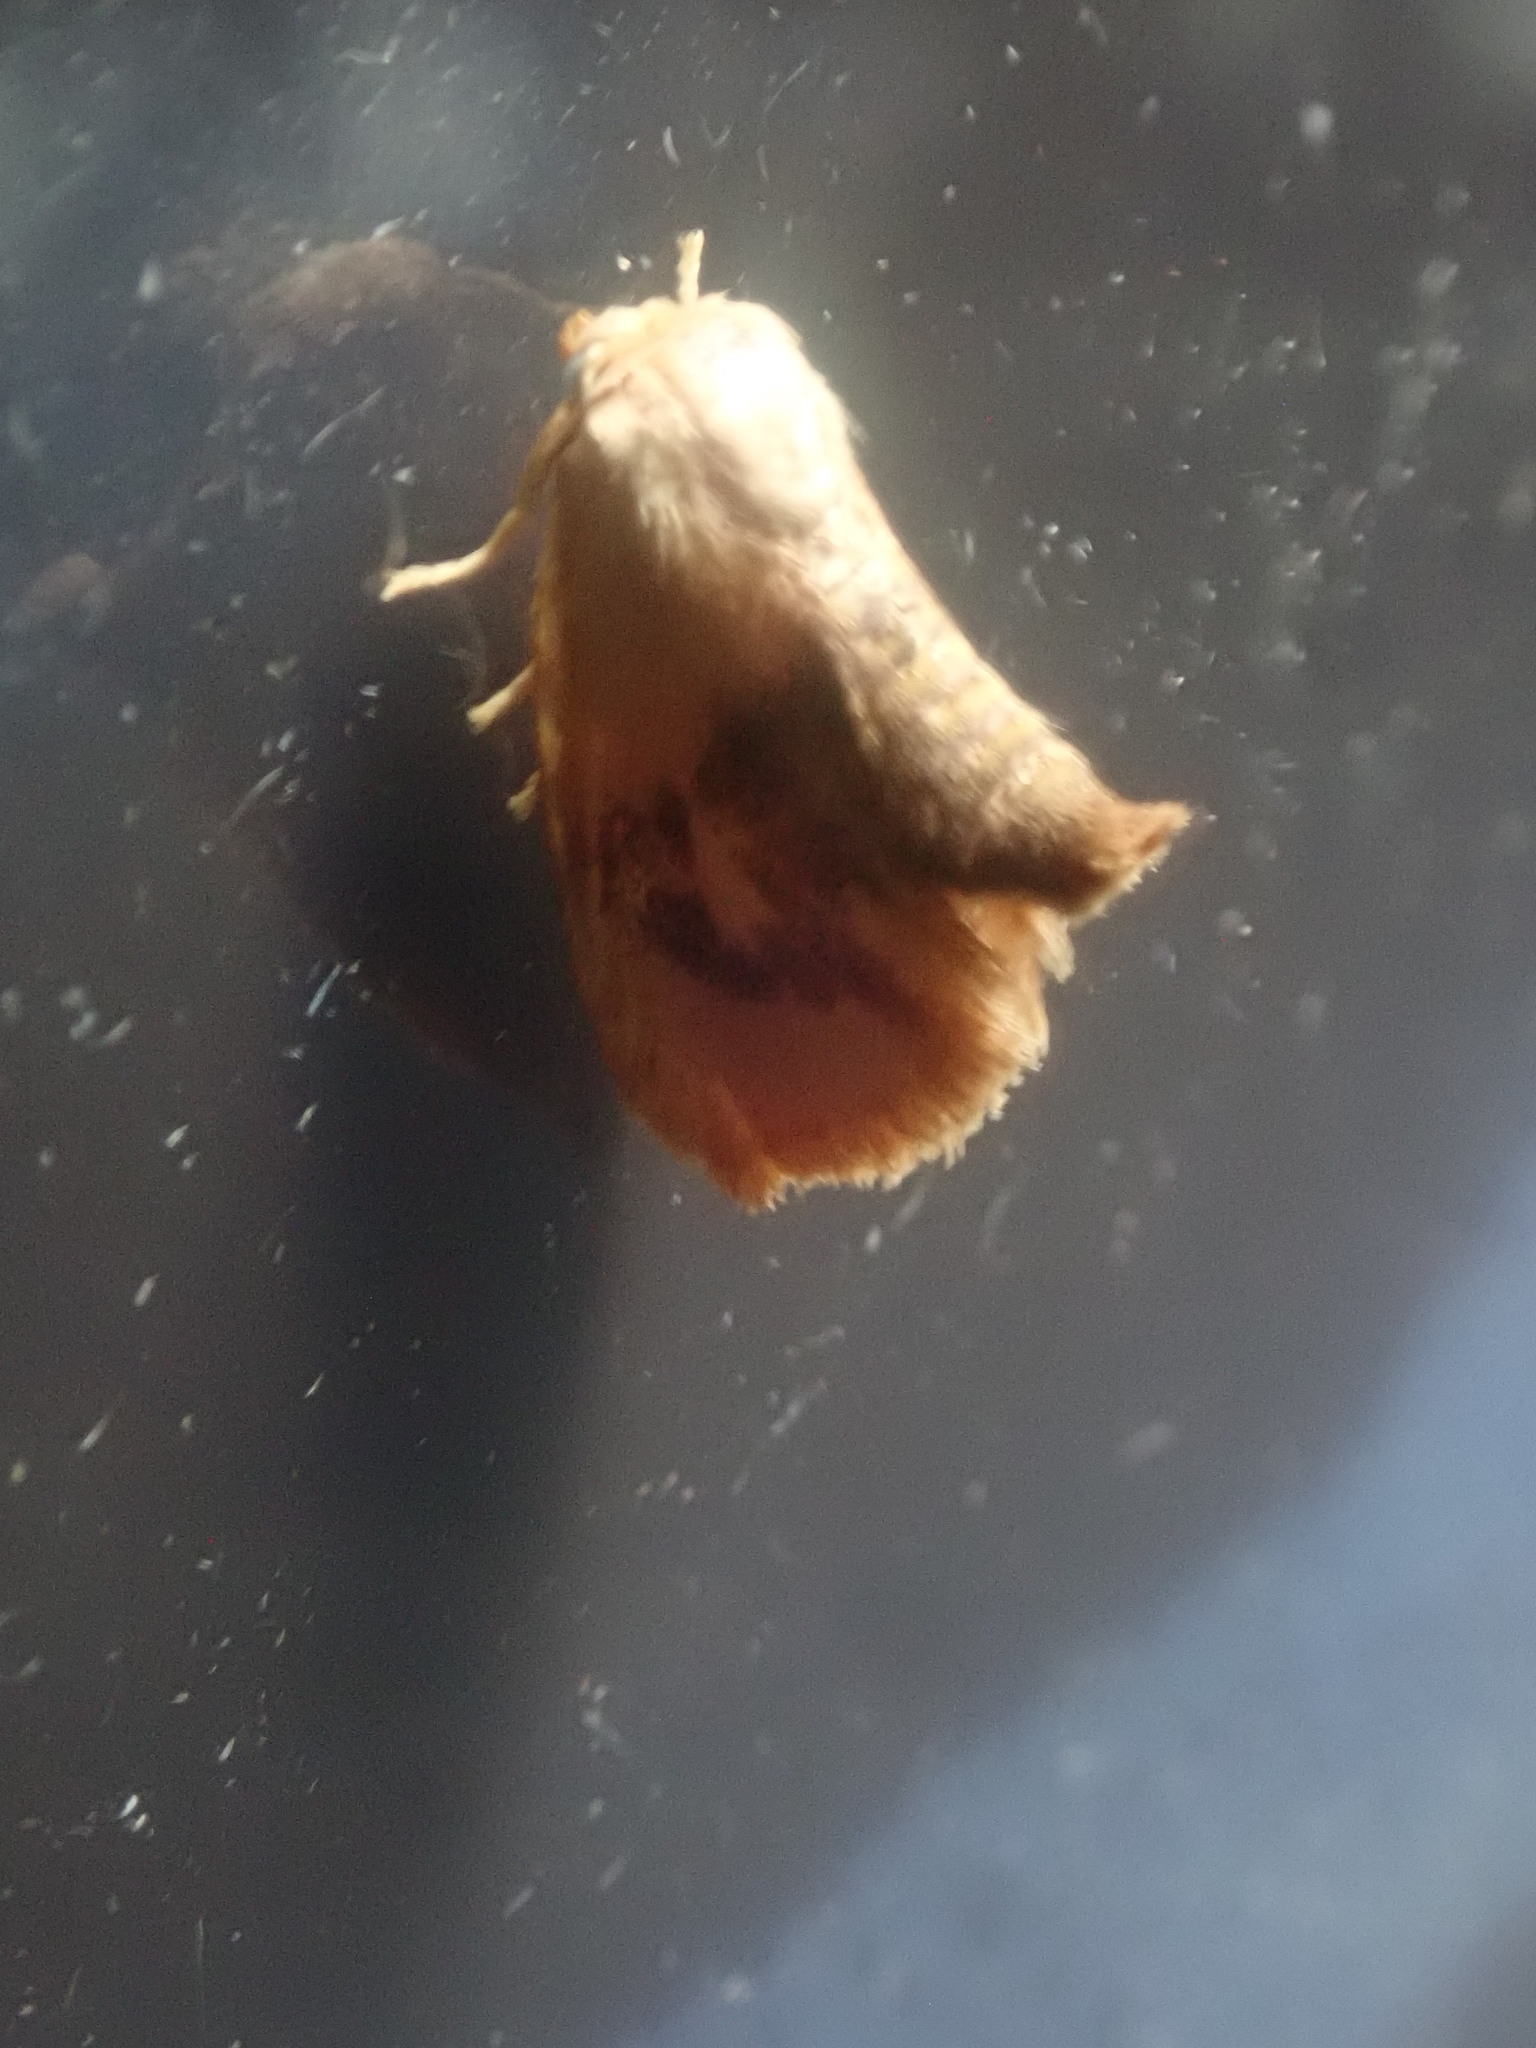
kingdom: Animalia
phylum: Arthropoda
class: Insecta
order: Lepidoptera
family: Limacodidae
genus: Tortricidia
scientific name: Tortricidia flexuosa
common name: Abbreviated button slug moth
